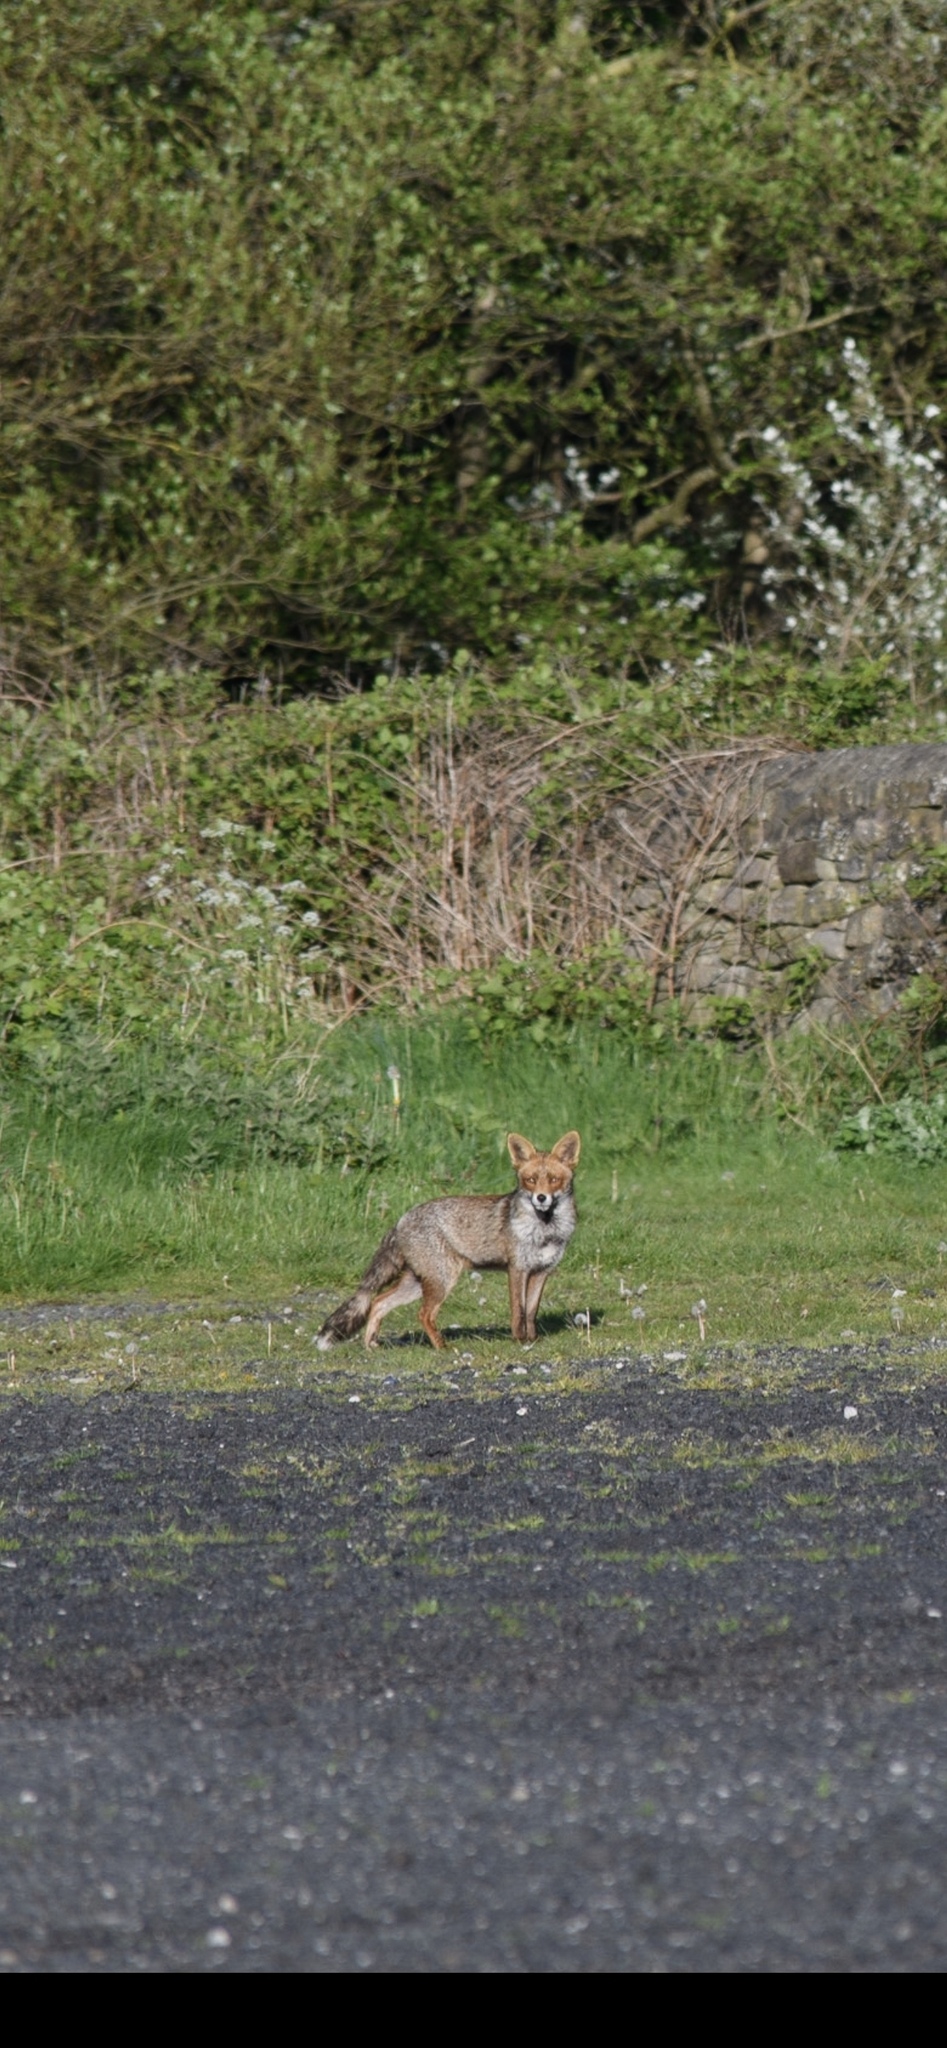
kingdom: Animalia
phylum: Chordata
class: Mammalia
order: Carnivora
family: Canidae
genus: Vulpes
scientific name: Vulpes vulpes
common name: Red fox
